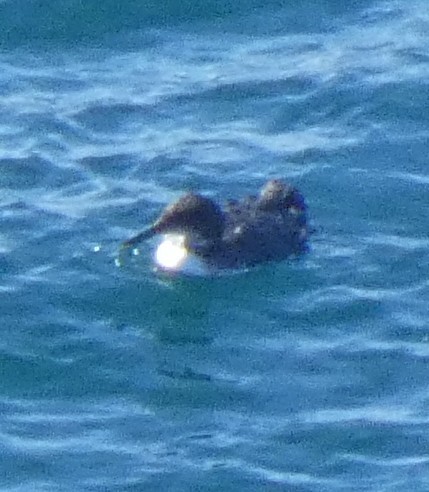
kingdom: Animalia
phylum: Chordata
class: Aves
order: Charadriiformes
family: Alcidae
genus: Uria
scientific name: Uria aalge
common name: Common murre
